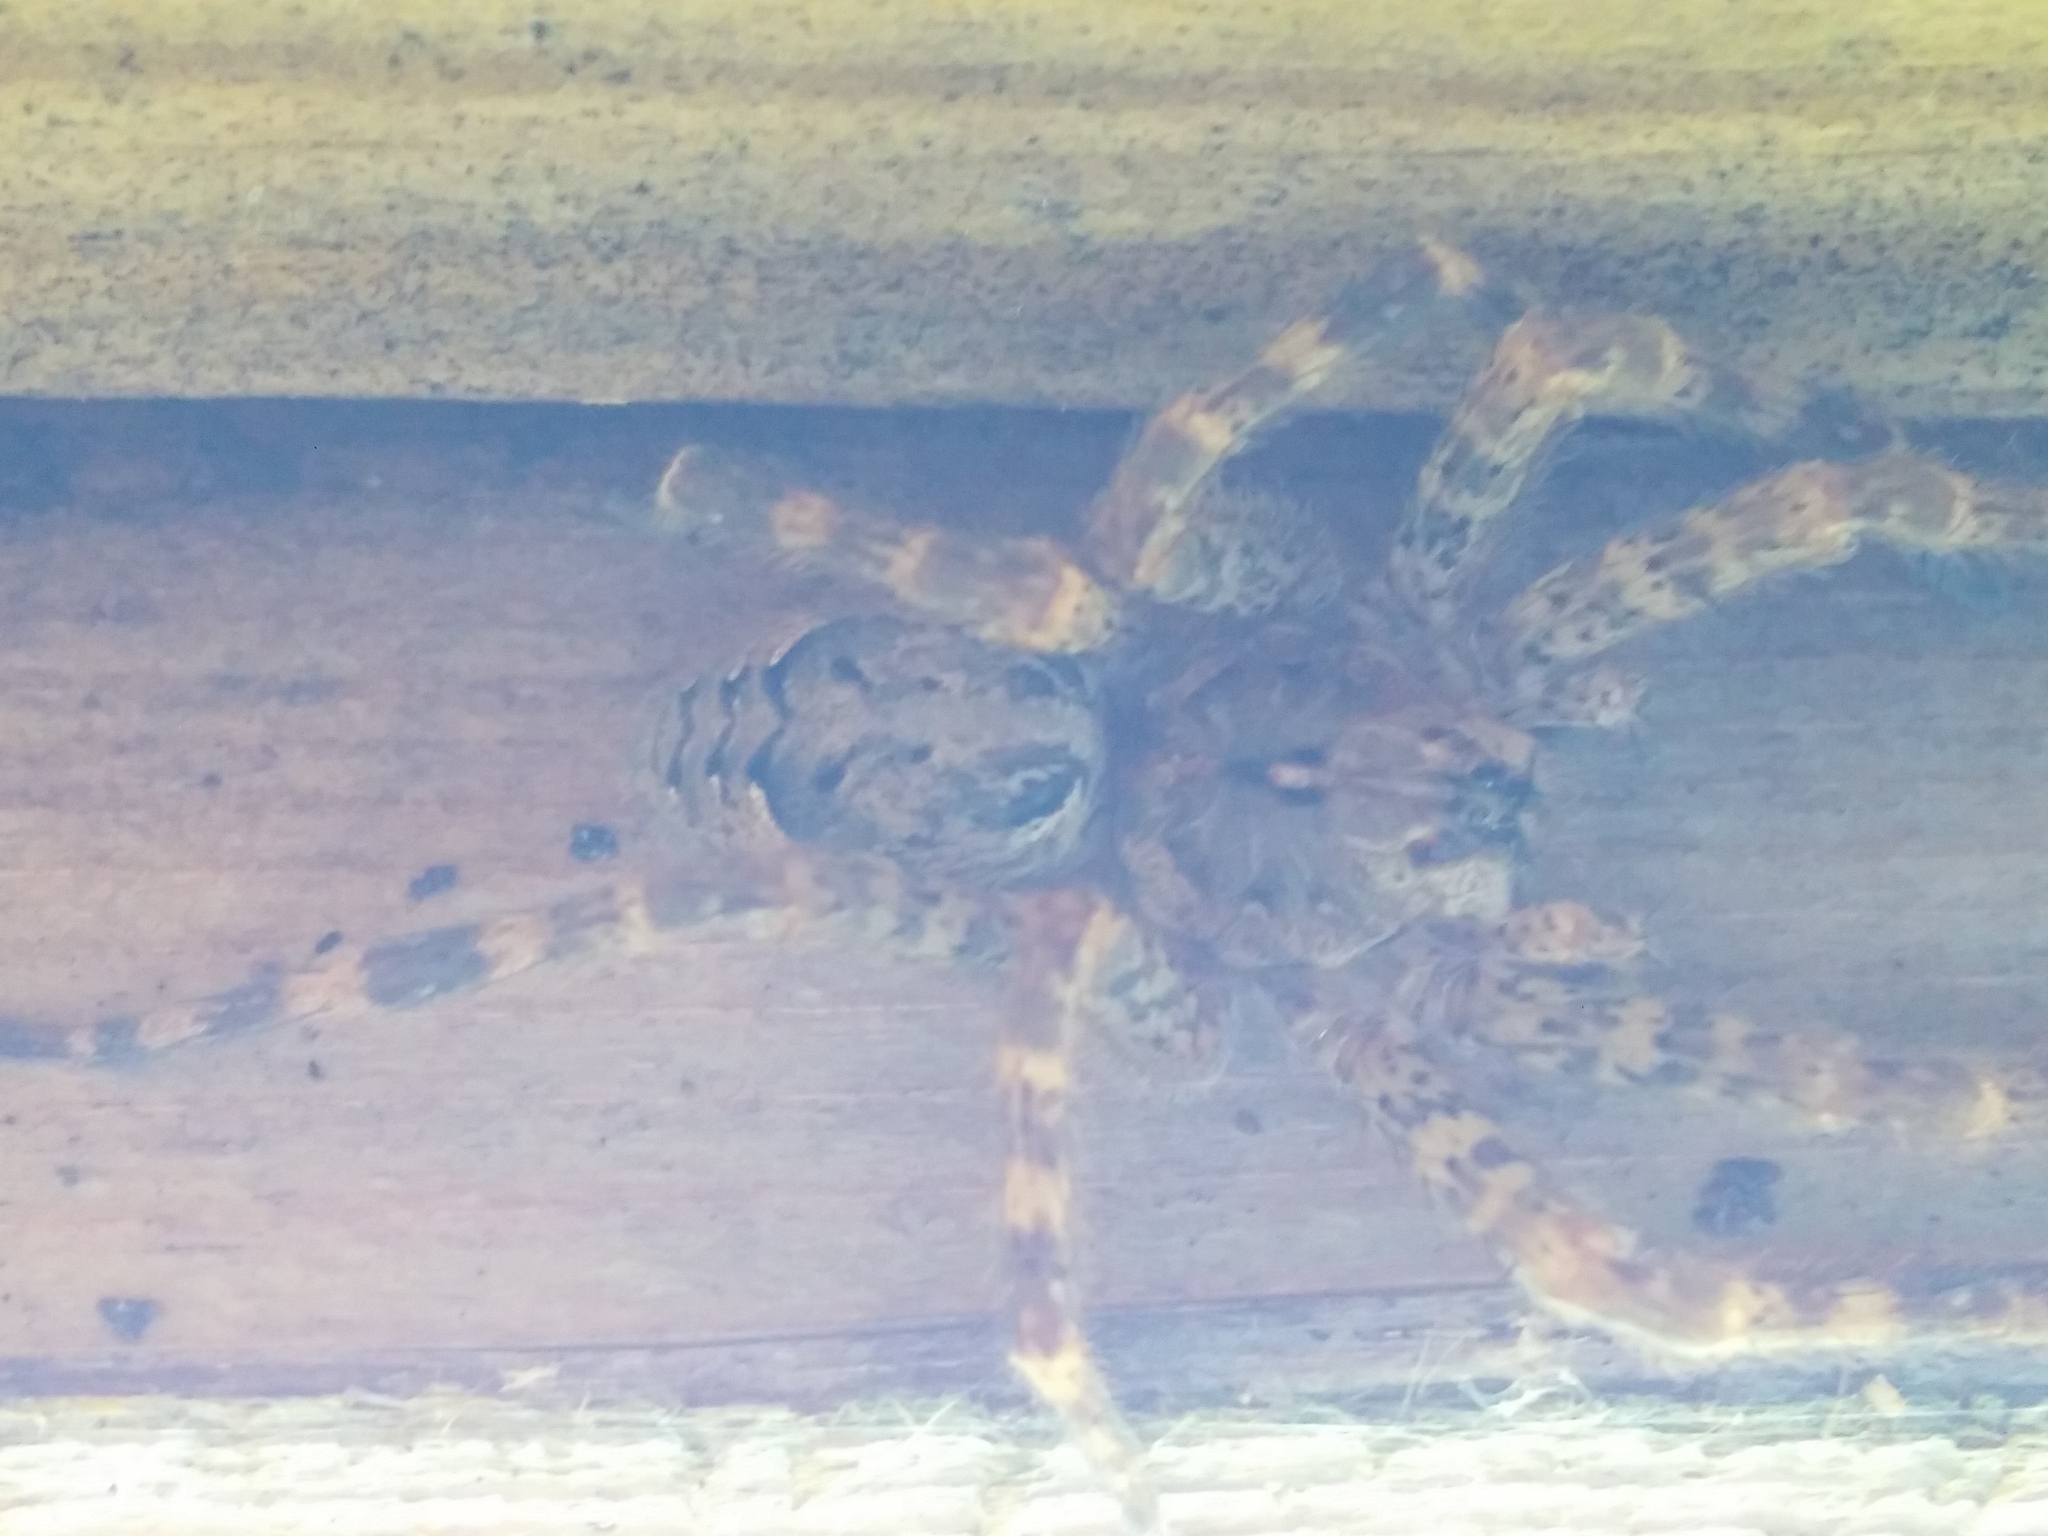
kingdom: Animalia
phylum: Arthropoda
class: Arachnida
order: Araneae
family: Pisauridae
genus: Dolomedes
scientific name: Dolomedes tenebrosus
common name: Dark fishing spider
